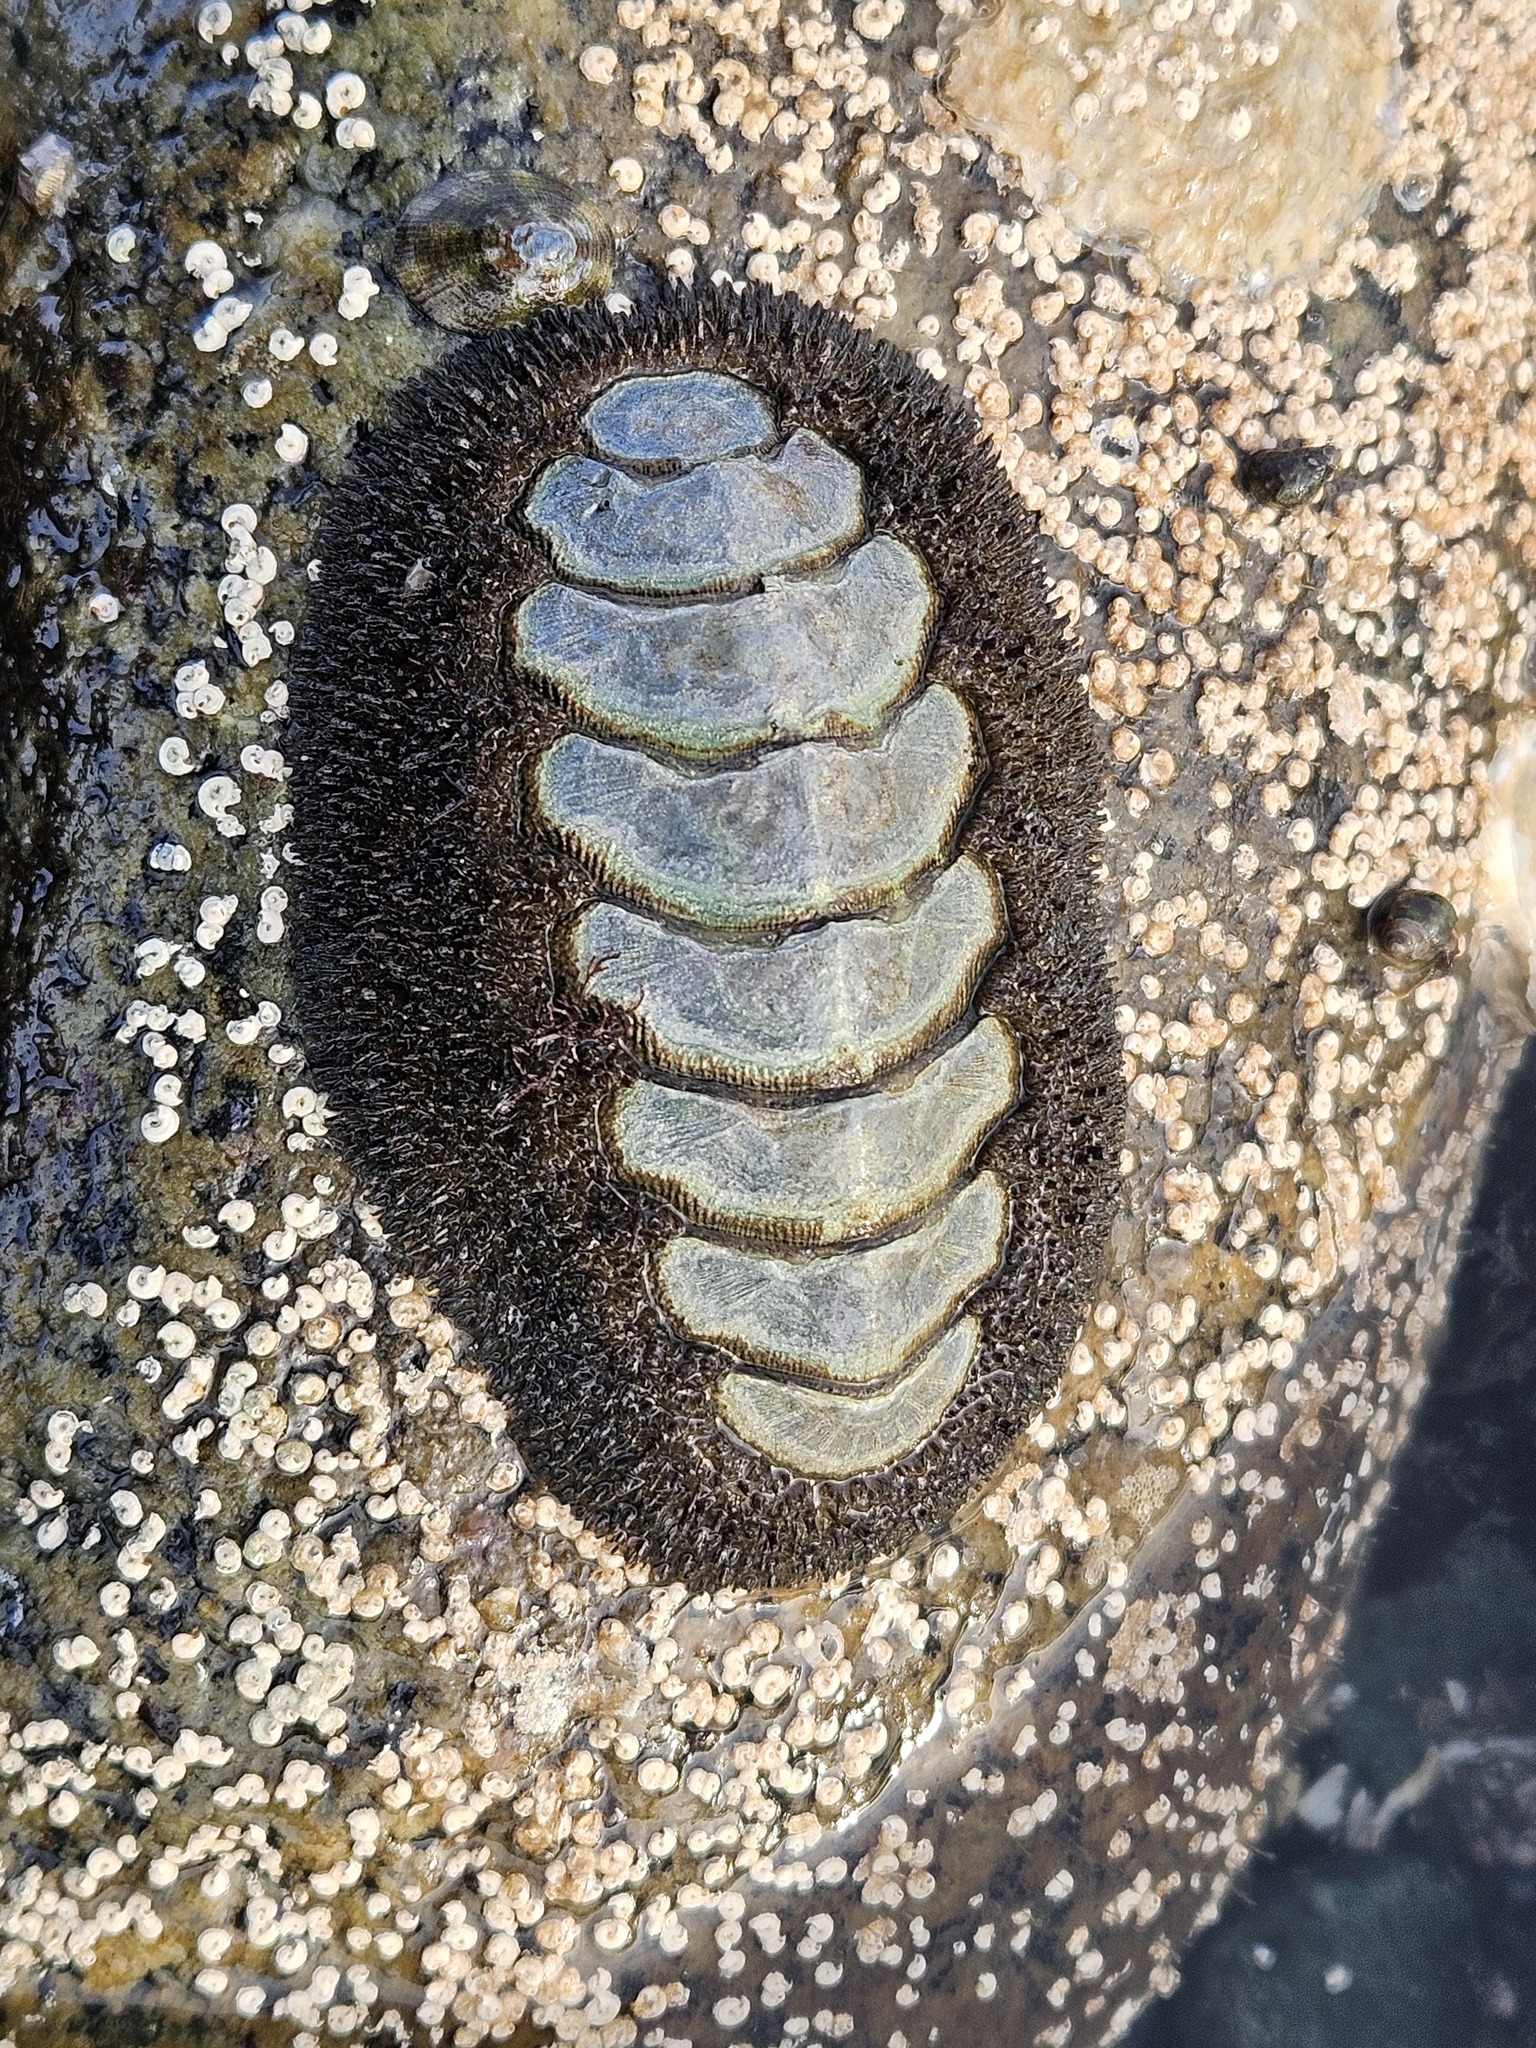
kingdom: Animalia
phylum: Mollusca
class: Polyplacophora
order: Chitonida
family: Mopaliidae
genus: Mopalia
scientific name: Mopalia muscosa
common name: Mossy chiton
